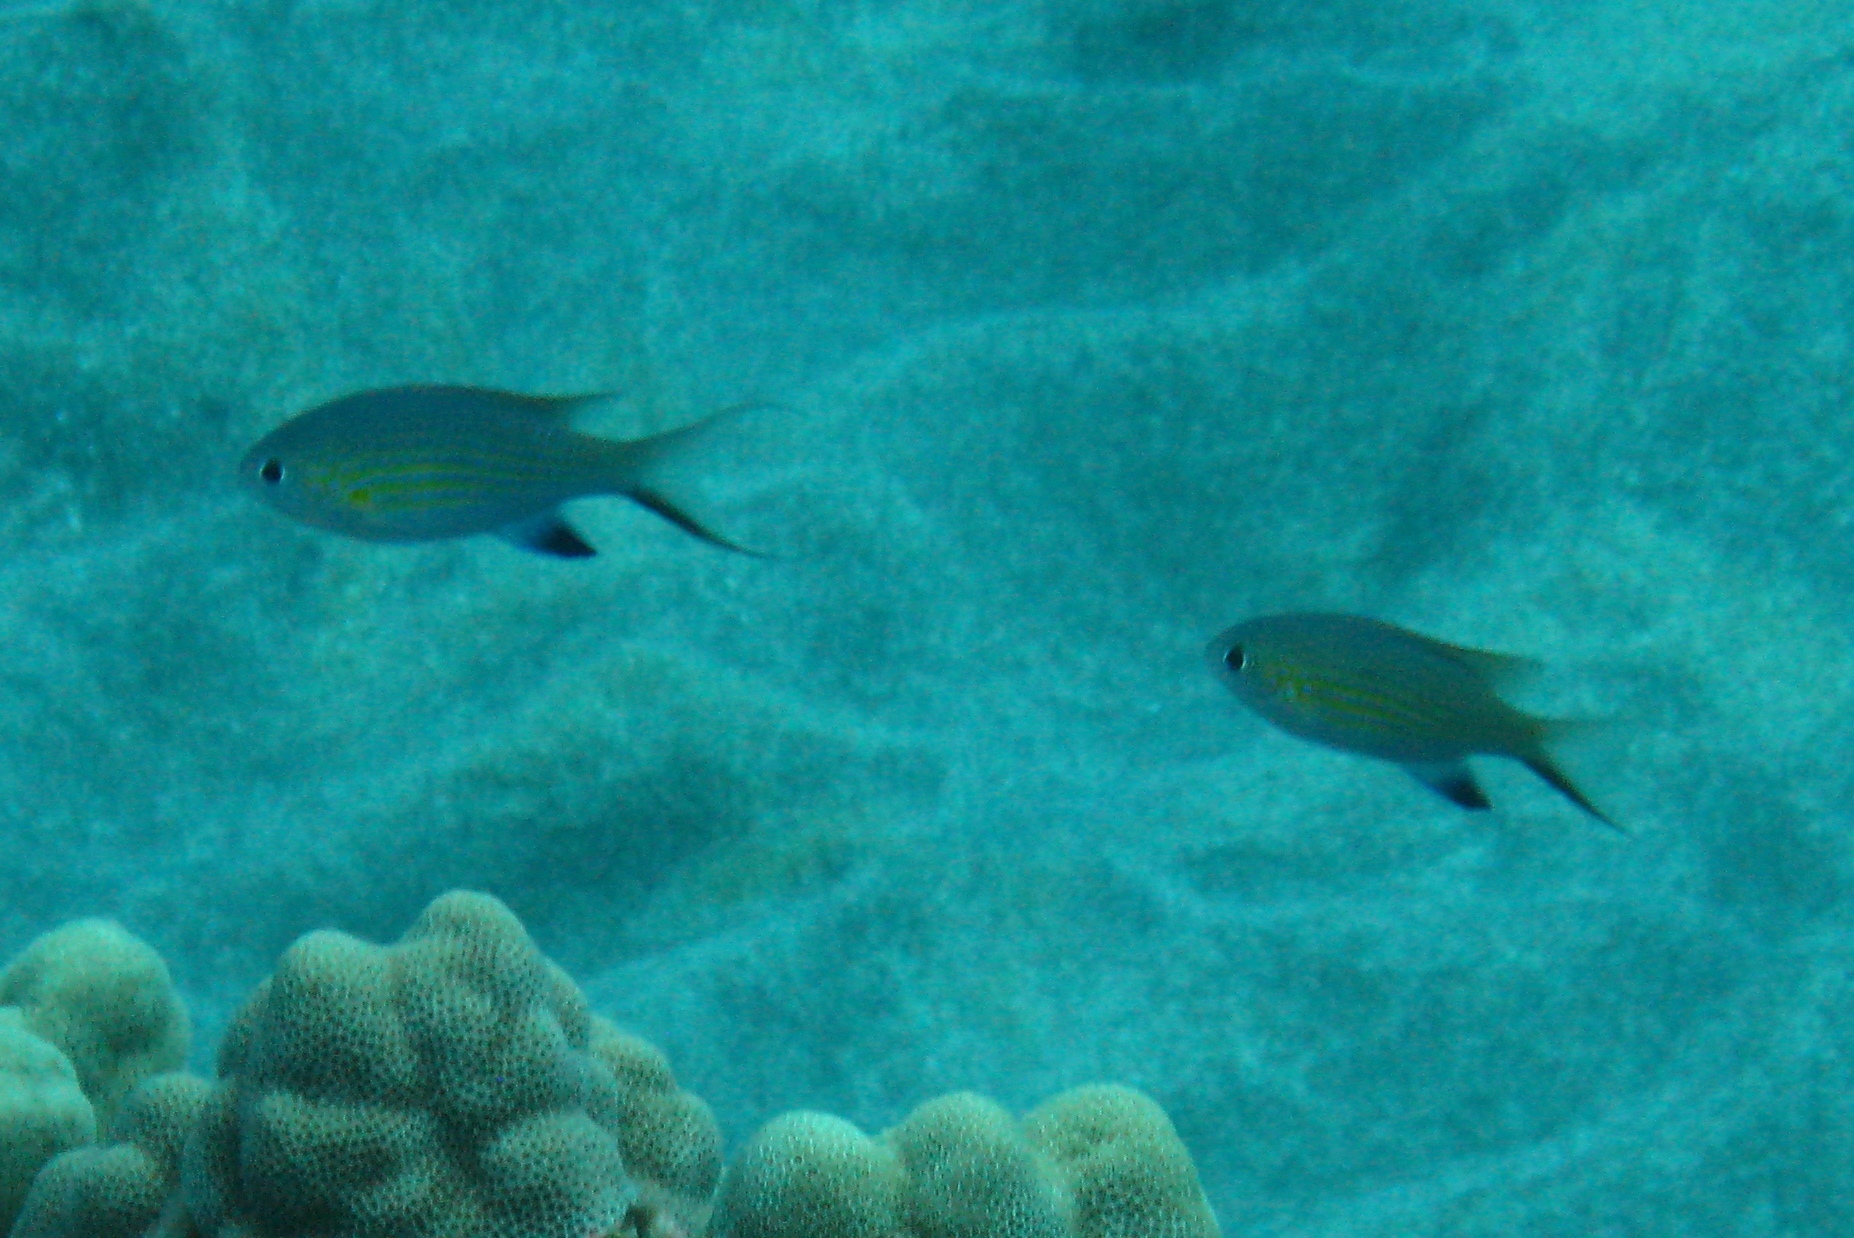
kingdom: Animalia
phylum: Chordata
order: Perciformes
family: Pomacentridae
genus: Chromis
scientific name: Chromis vanderbilti
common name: Vanderbilt's chromis
